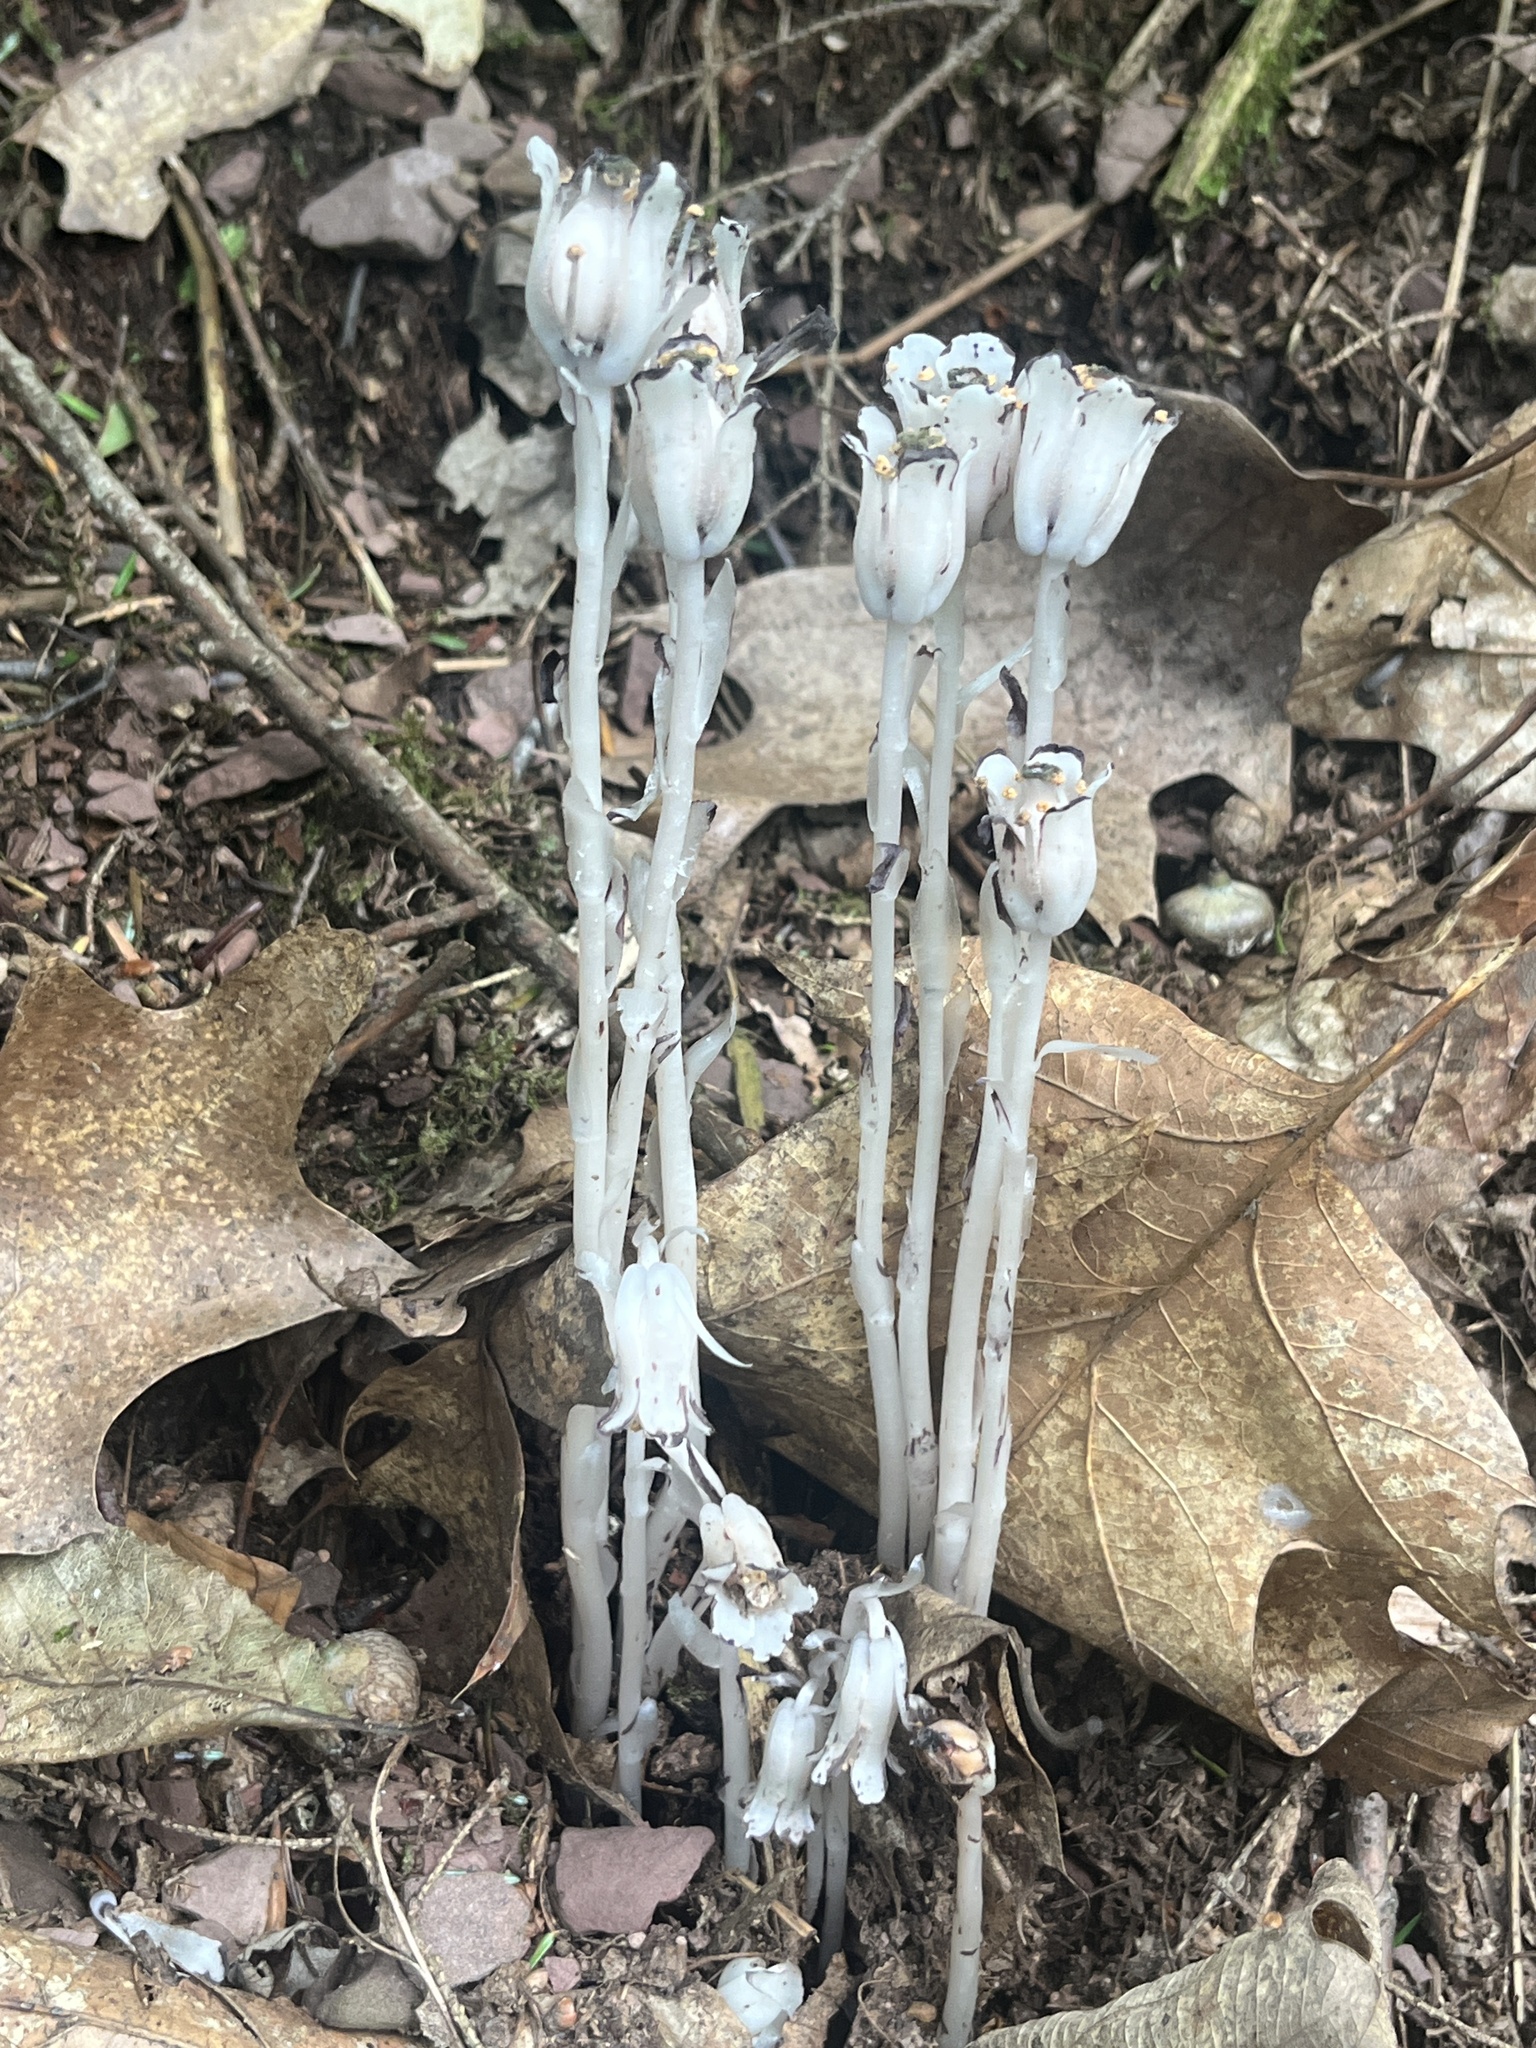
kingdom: Plantae
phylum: Tracheophyta
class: Magnoliopsida
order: Ericales
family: Ericaceae
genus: Monotropa
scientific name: Monotropa uniflora
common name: Convulsion root
